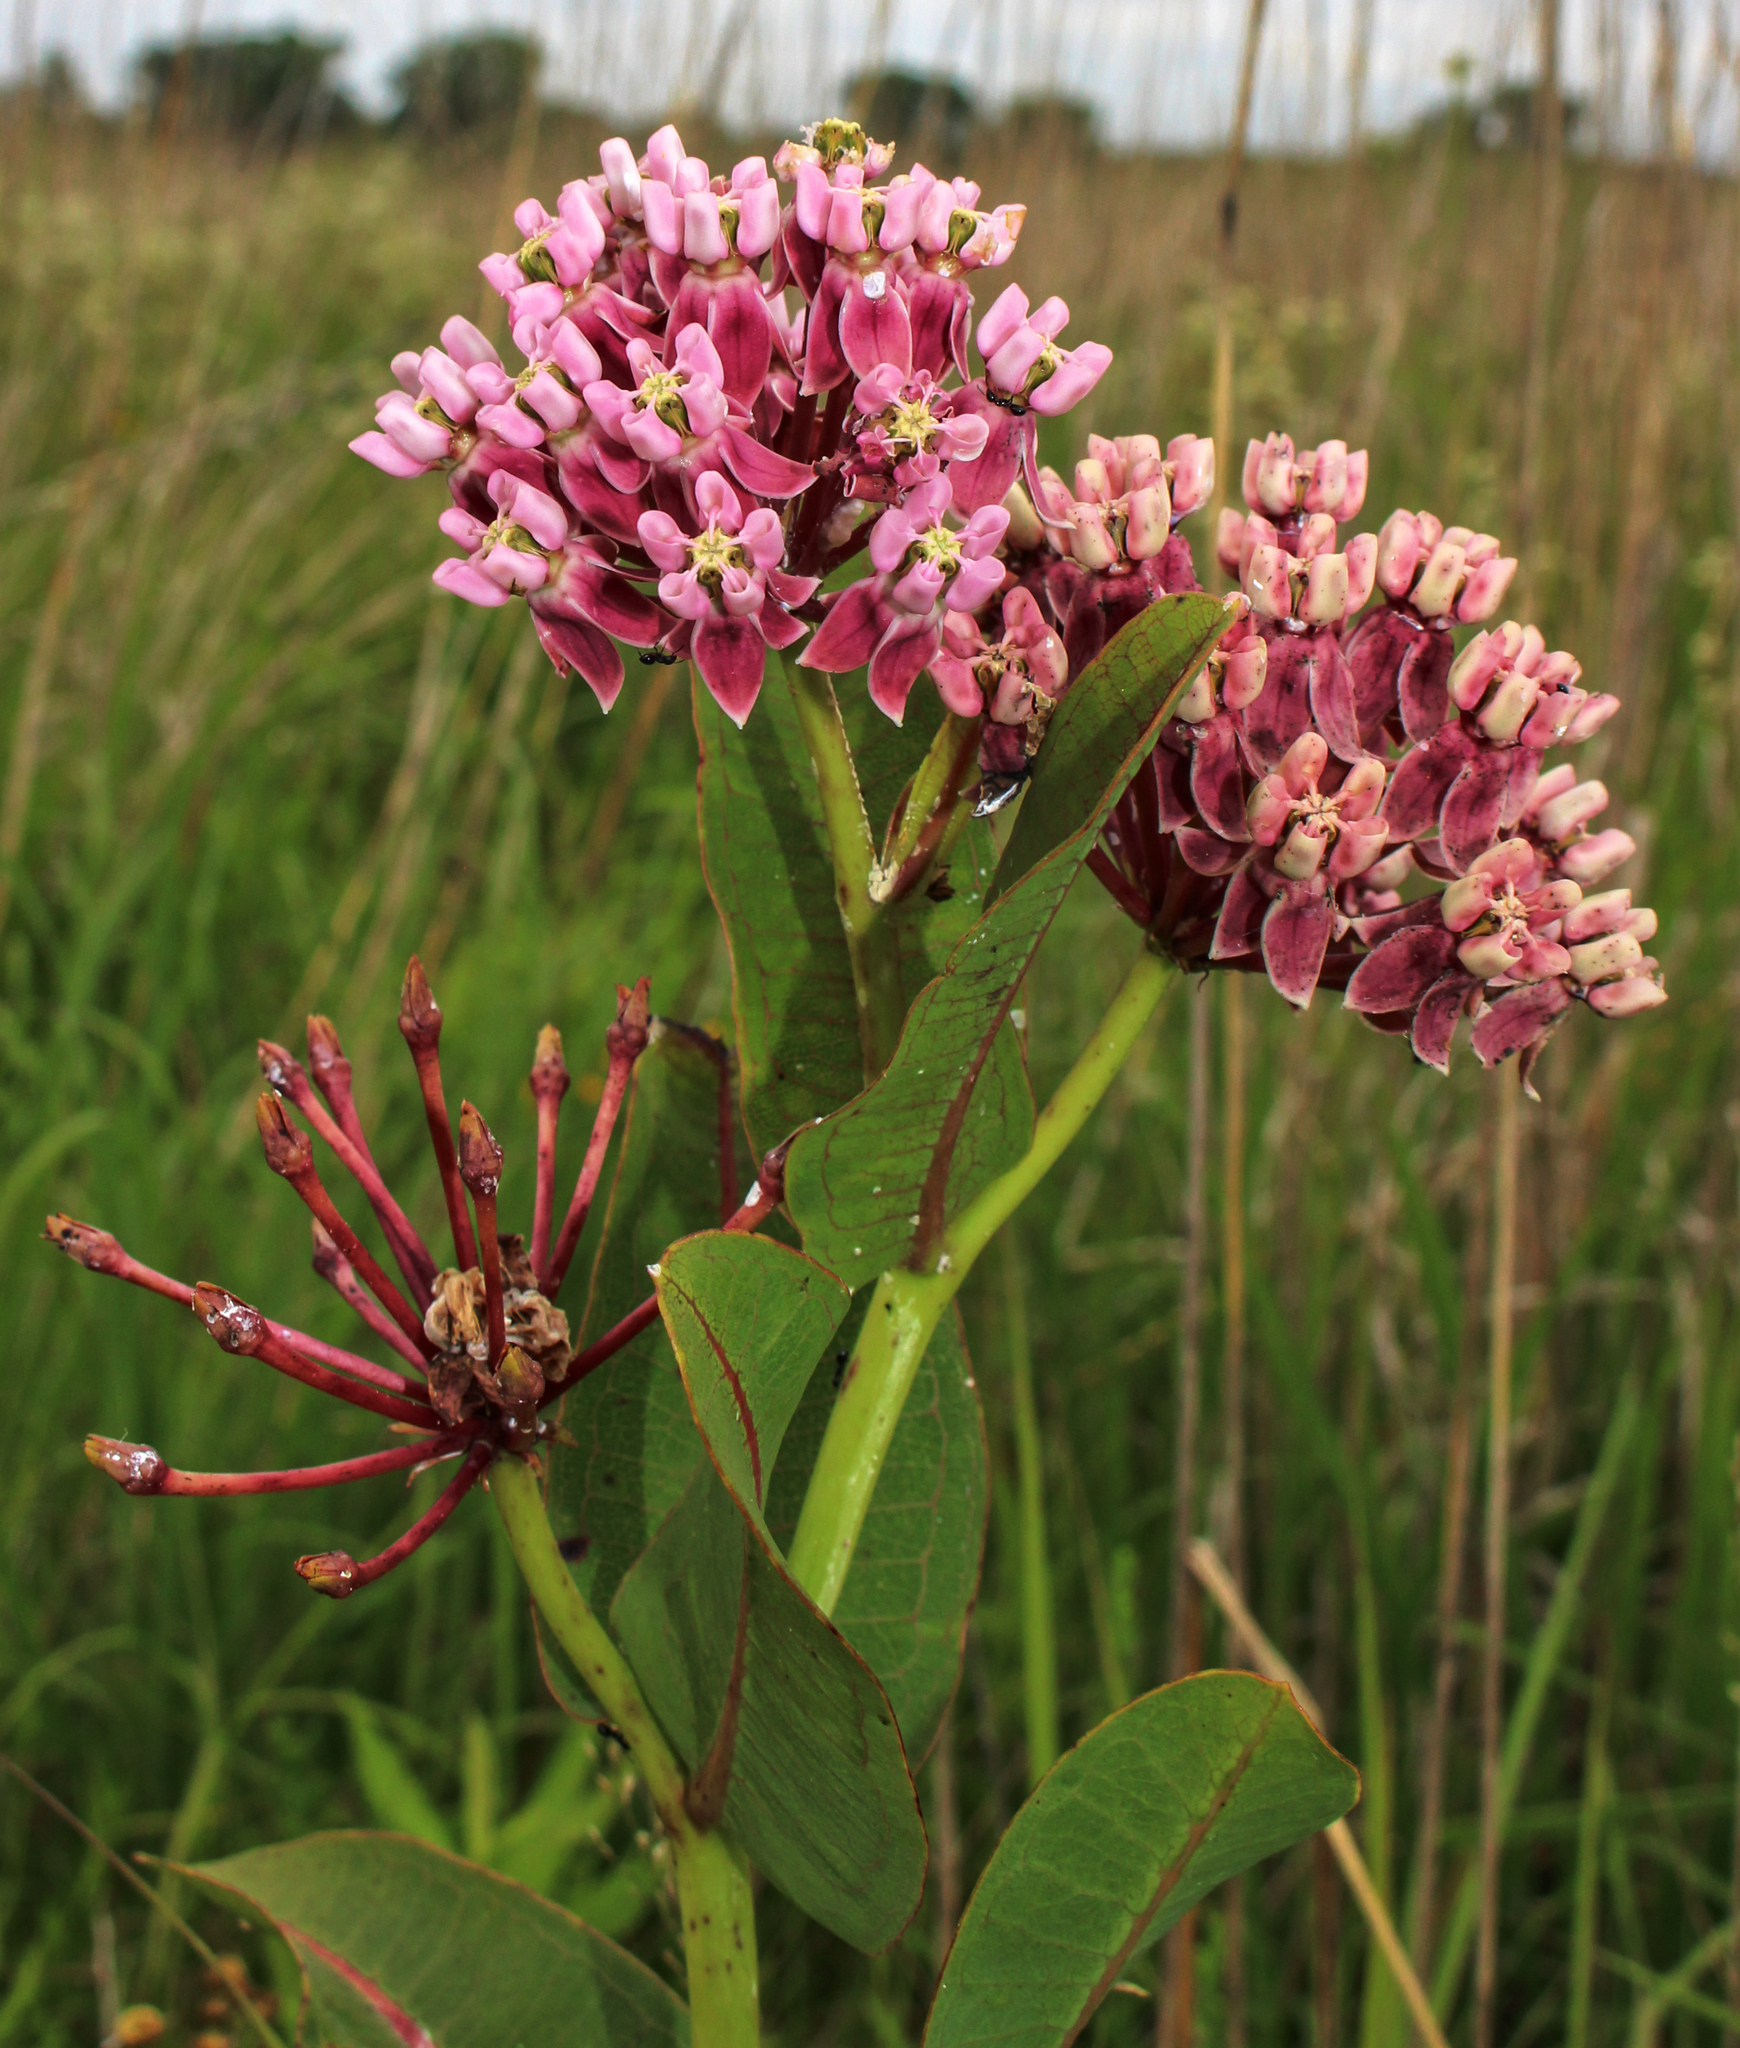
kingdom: Plantae
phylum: Tracheophyta
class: Magnoliopsida
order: Gentianales
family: Apocynaceae
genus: Asclepias
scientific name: Asclepias sullivantii
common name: Prairie milkweed
